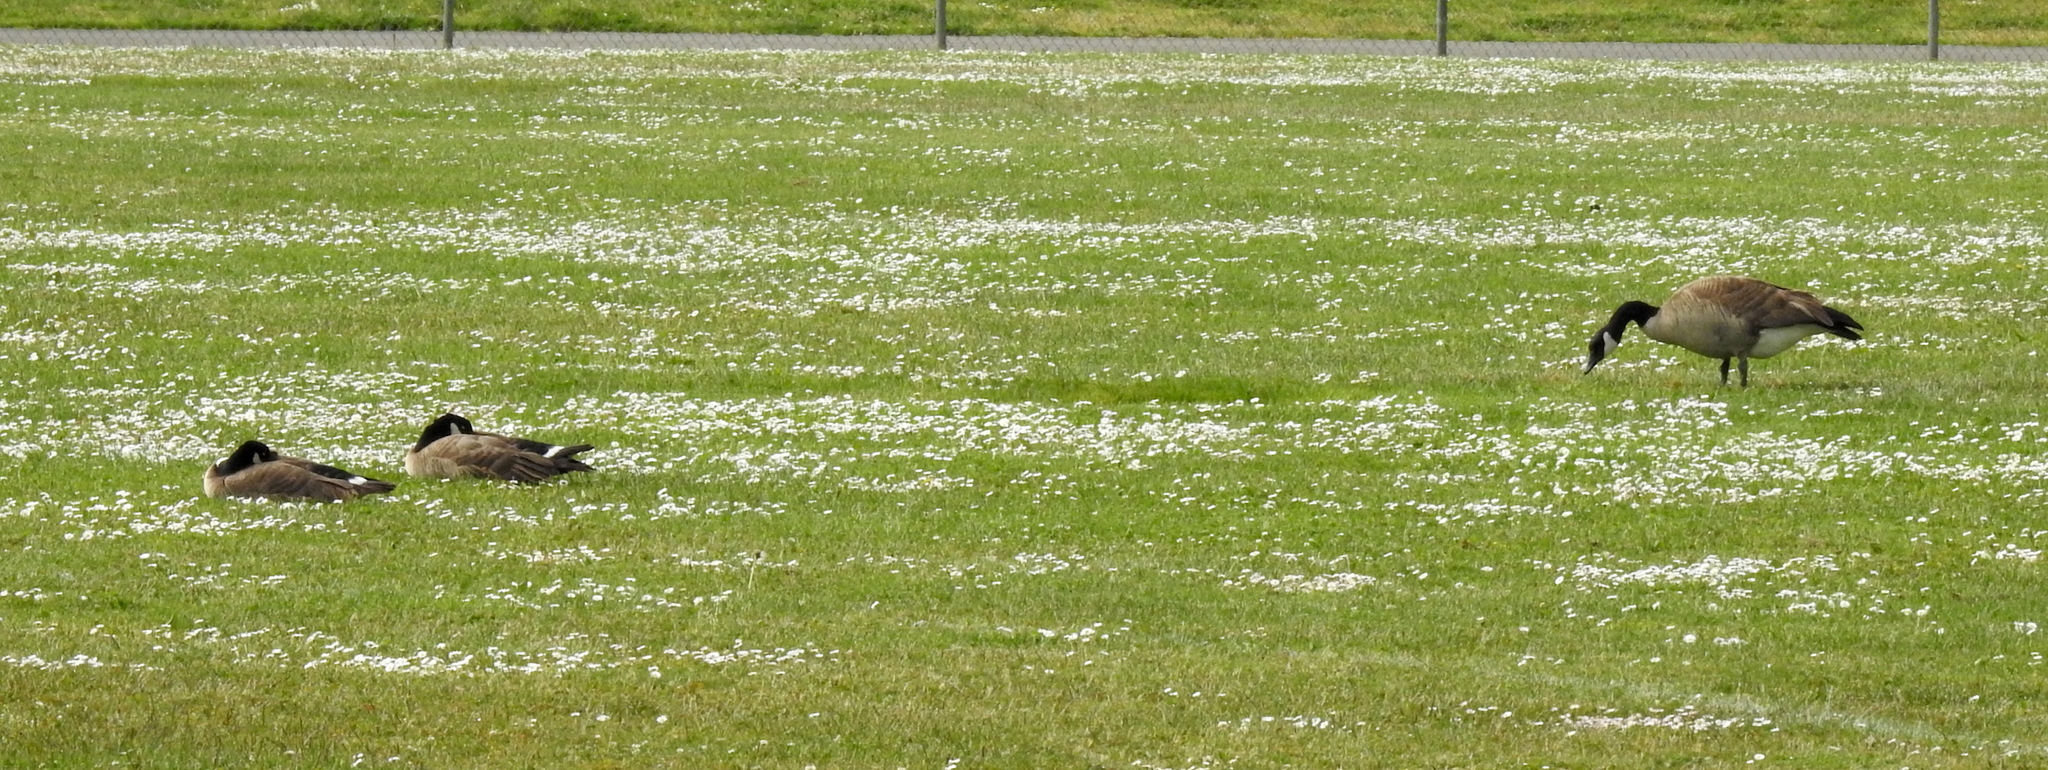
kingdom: Animalia
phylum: Chordata
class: Aves
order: Anseriformes
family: Anatidae
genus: Branta
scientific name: Branta hutchinsii
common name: Cackling goose
